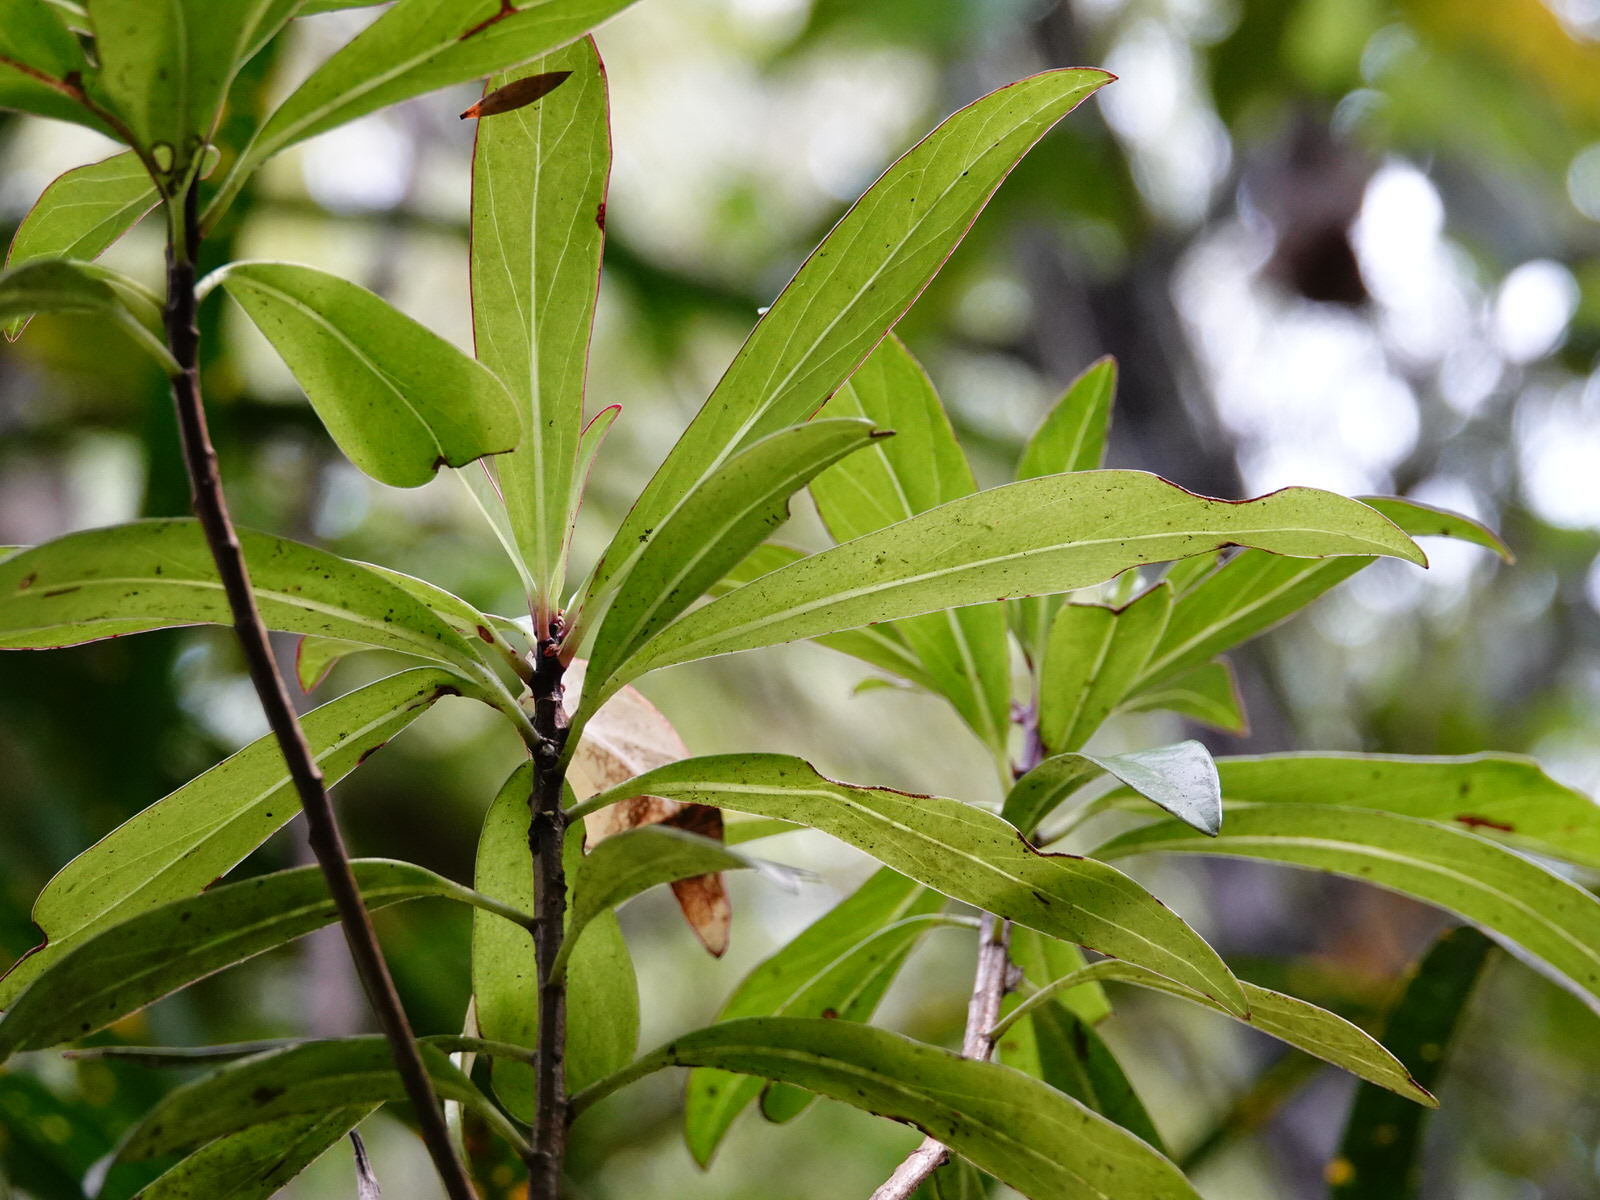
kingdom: Plantae
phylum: Tracheophyta
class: Magnoliopsida
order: Asterales
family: Asteraceae
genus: Brachyglottis
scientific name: Brachyglottis kirkii
